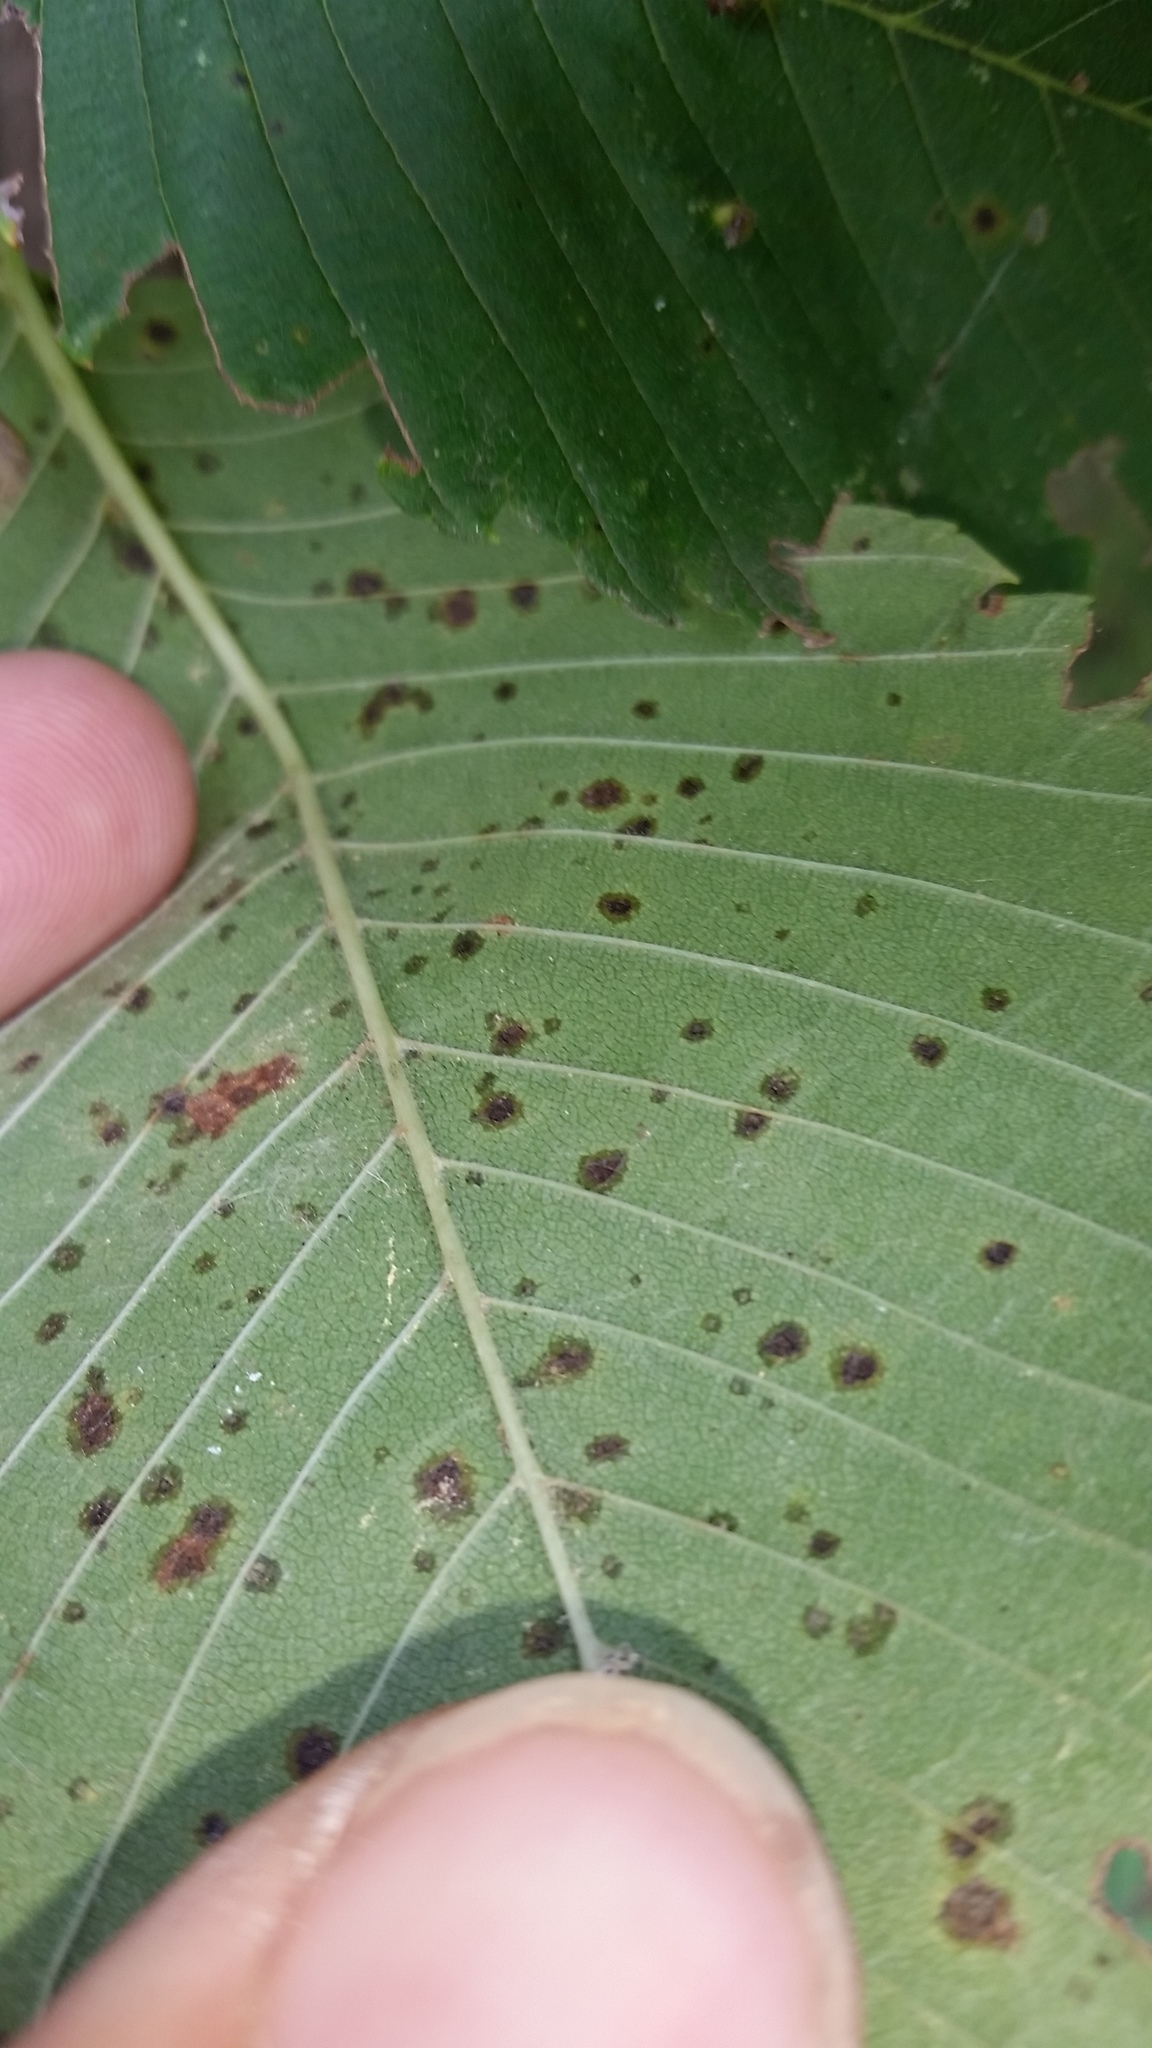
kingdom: Plantae
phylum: Tracheophyta
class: Magnoliopsida
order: Rosales
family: Ulmaceae
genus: Ulmus
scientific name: Ulmus americana
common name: American elm
